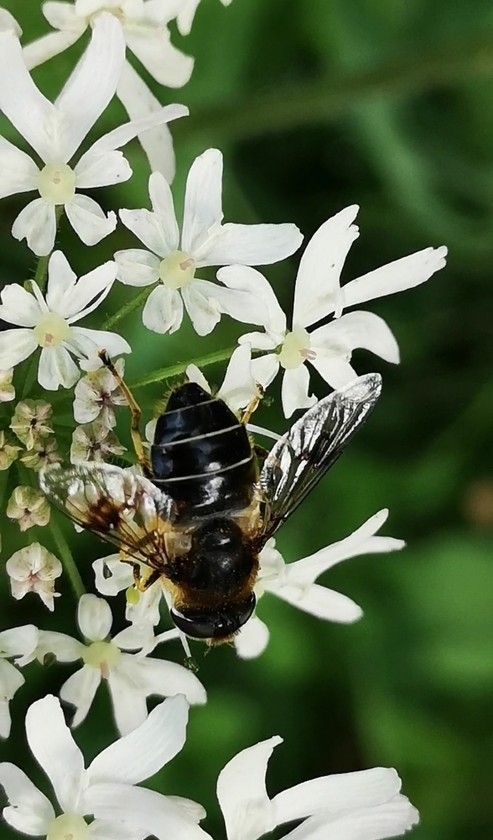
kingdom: Animalia
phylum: Arthropoda
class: Insecta
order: Diptera
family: Syrphidae
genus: Eristalis
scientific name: Eristalis rupium
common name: Hover fly
